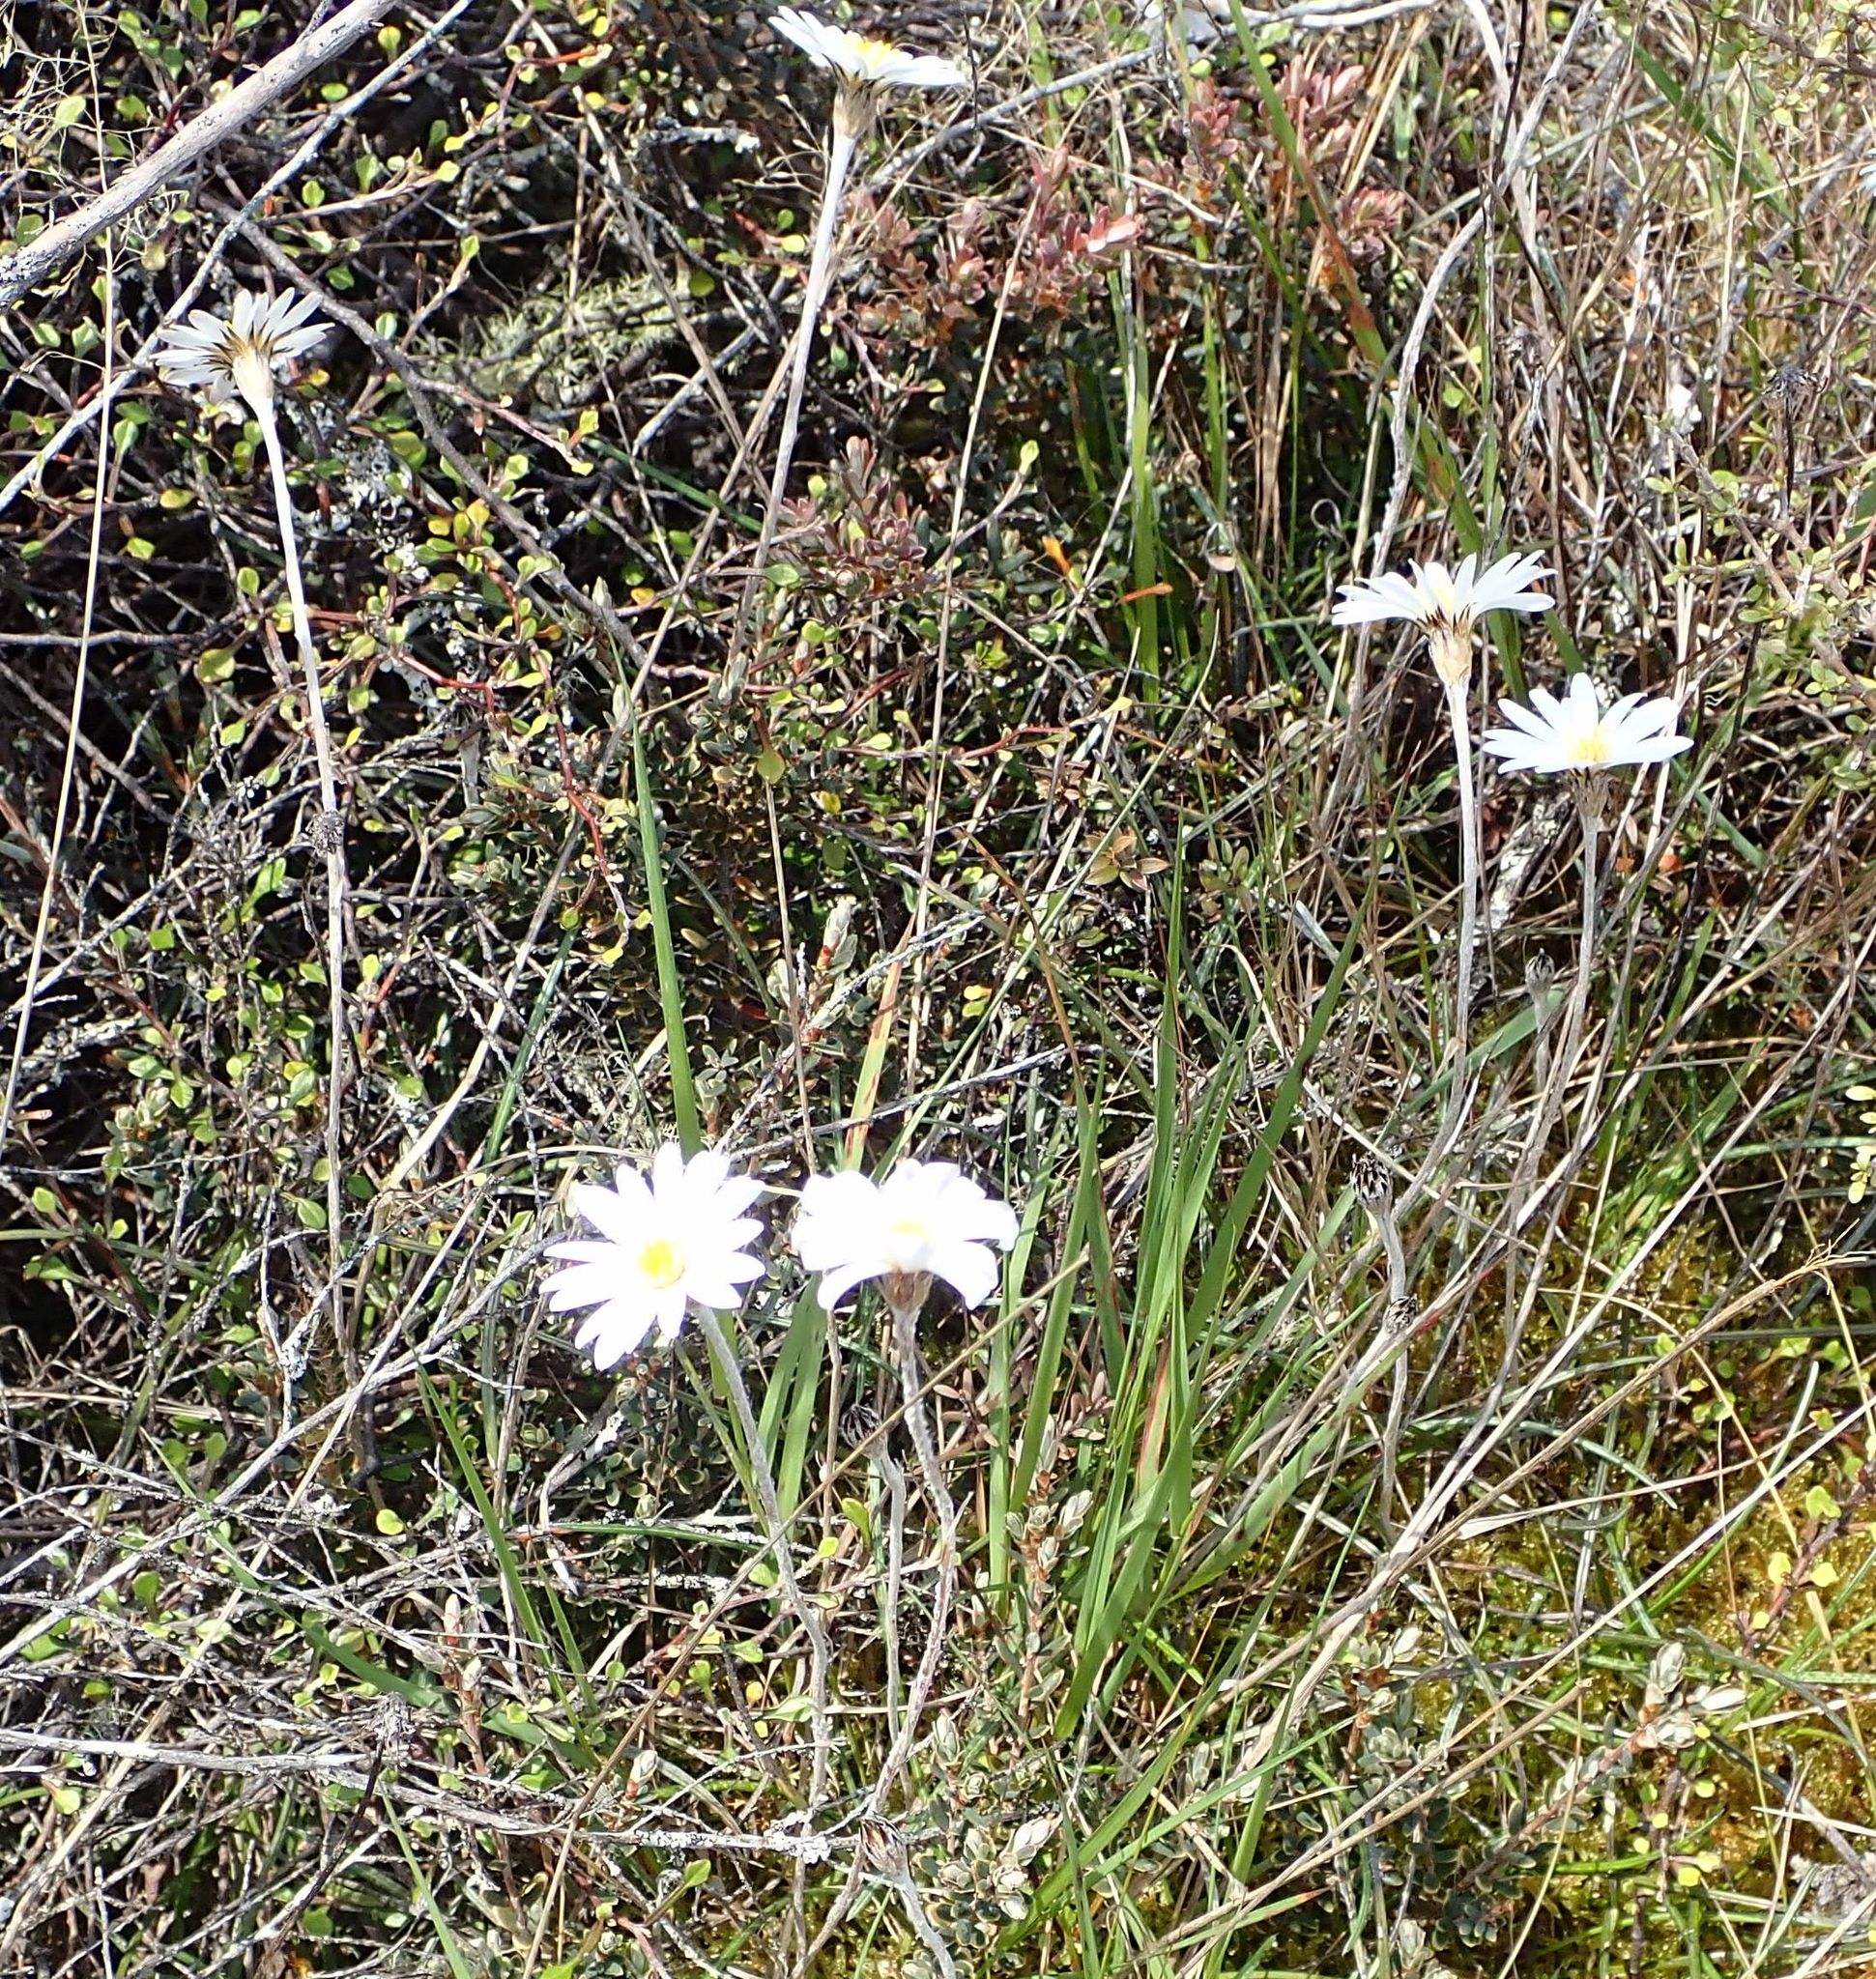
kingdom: Plantae
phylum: Tracheophyta
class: Magnoliopsida
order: Asterales
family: Asteraceae
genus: Celmisia
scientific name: Celmisia gracilenta
